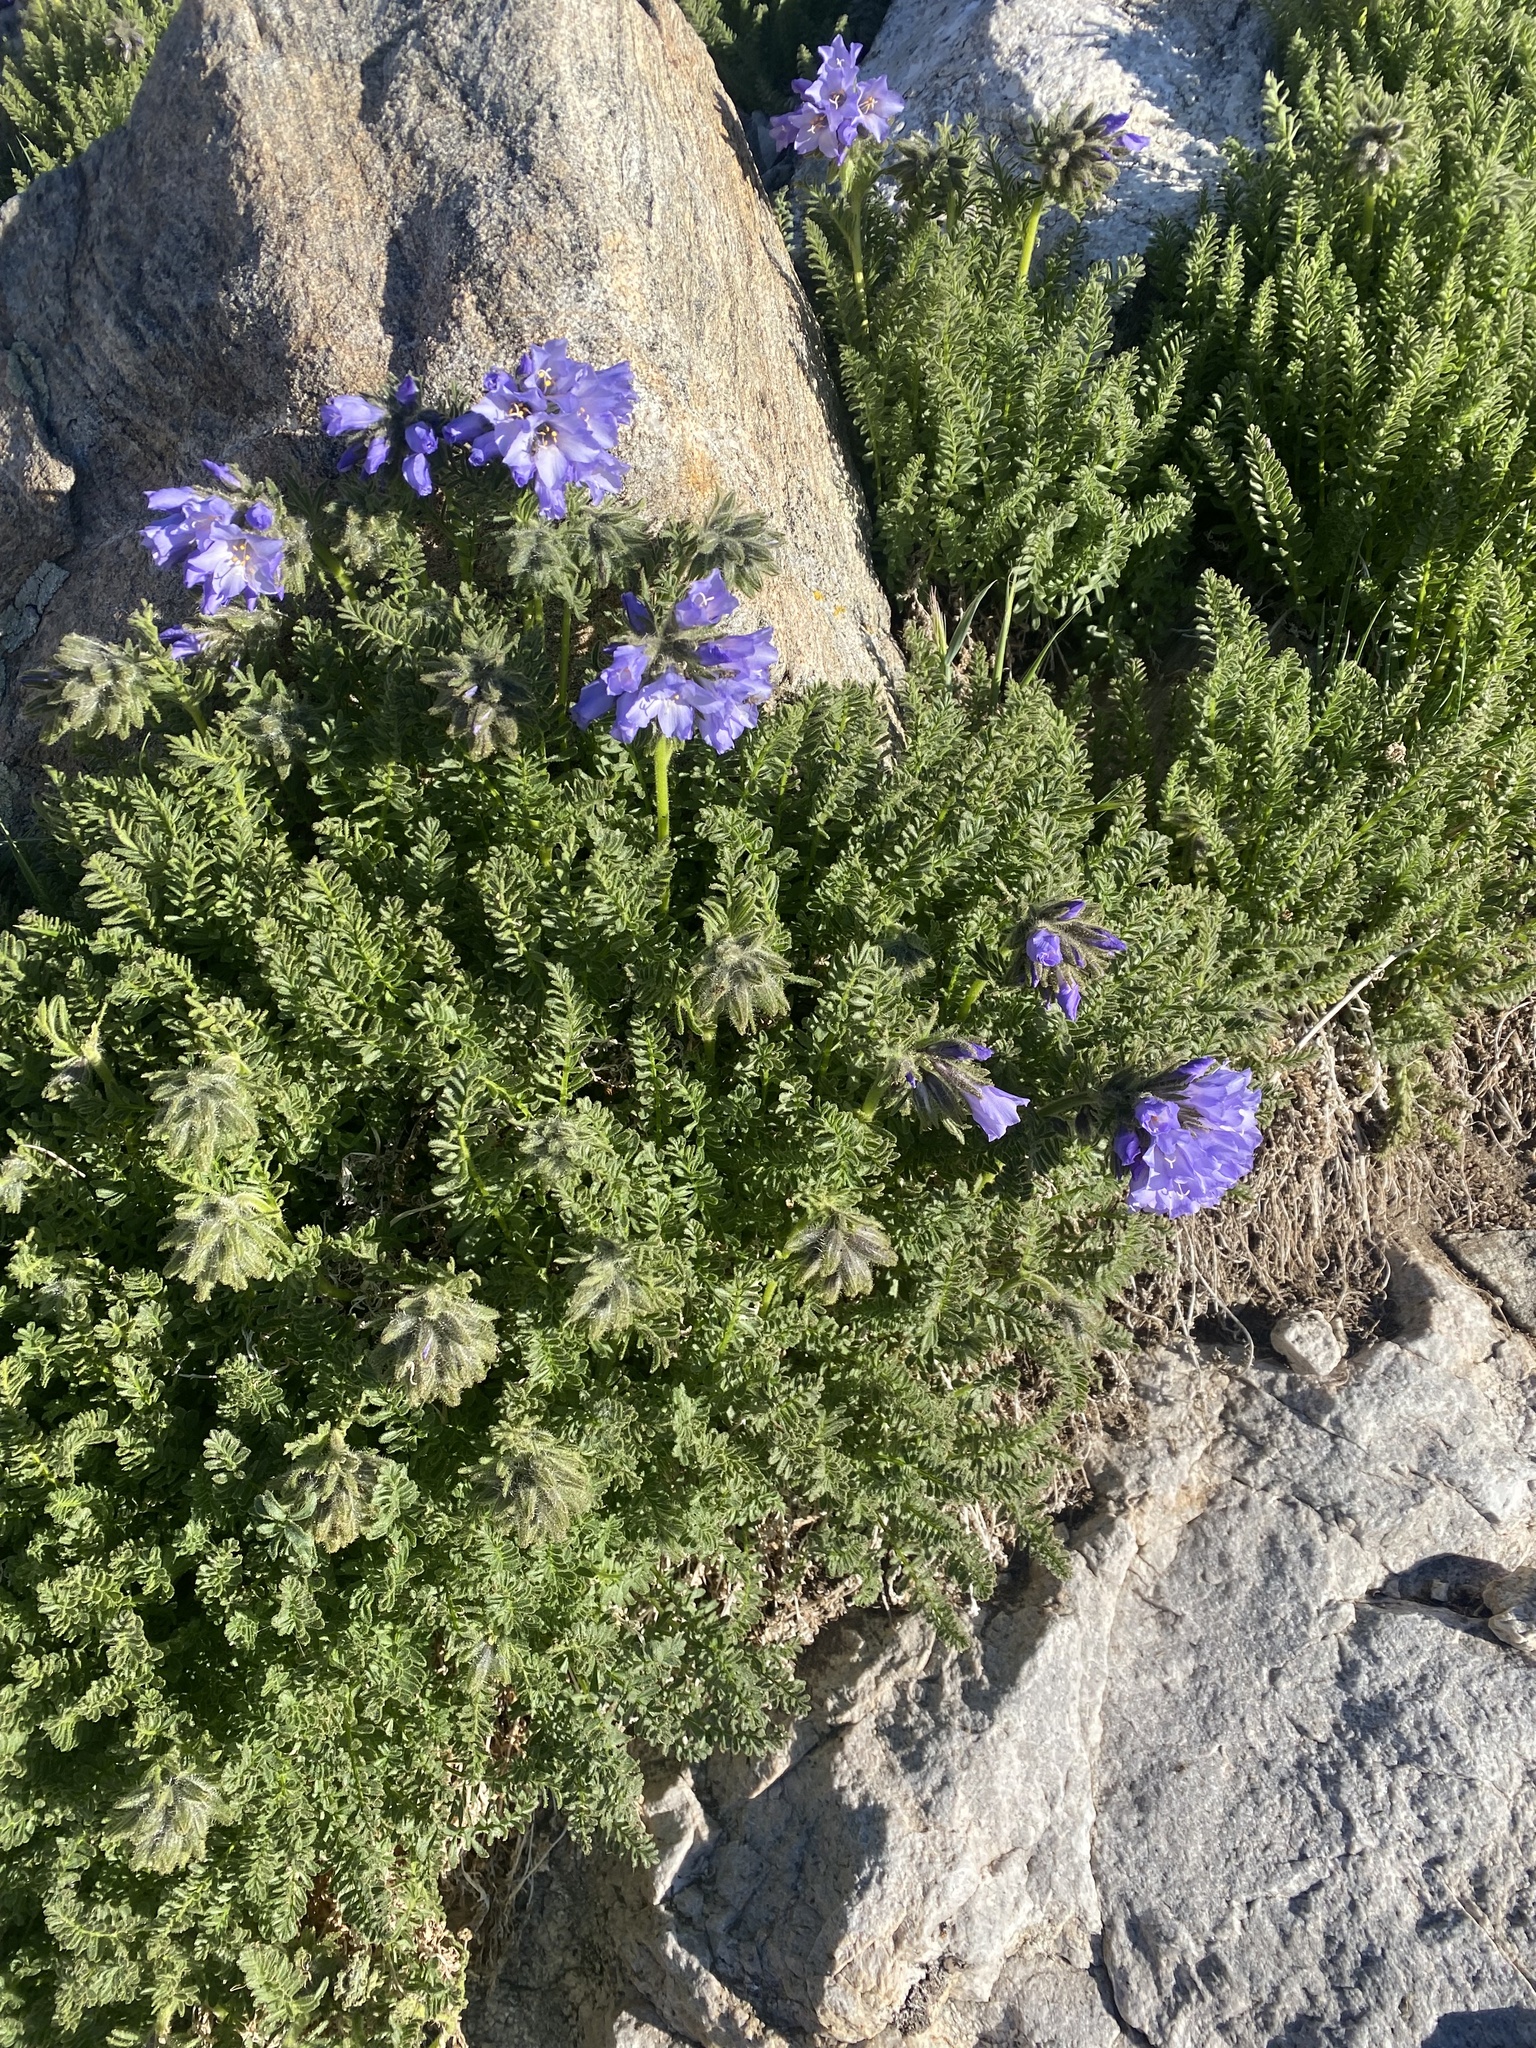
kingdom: Plantae
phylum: Tracheophyta
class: Magnoliopsida
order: Ericales
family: Polemoniaceae
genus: Polemonium
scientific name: Polemonium viscosum
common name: Skunk jacob's-ladder
